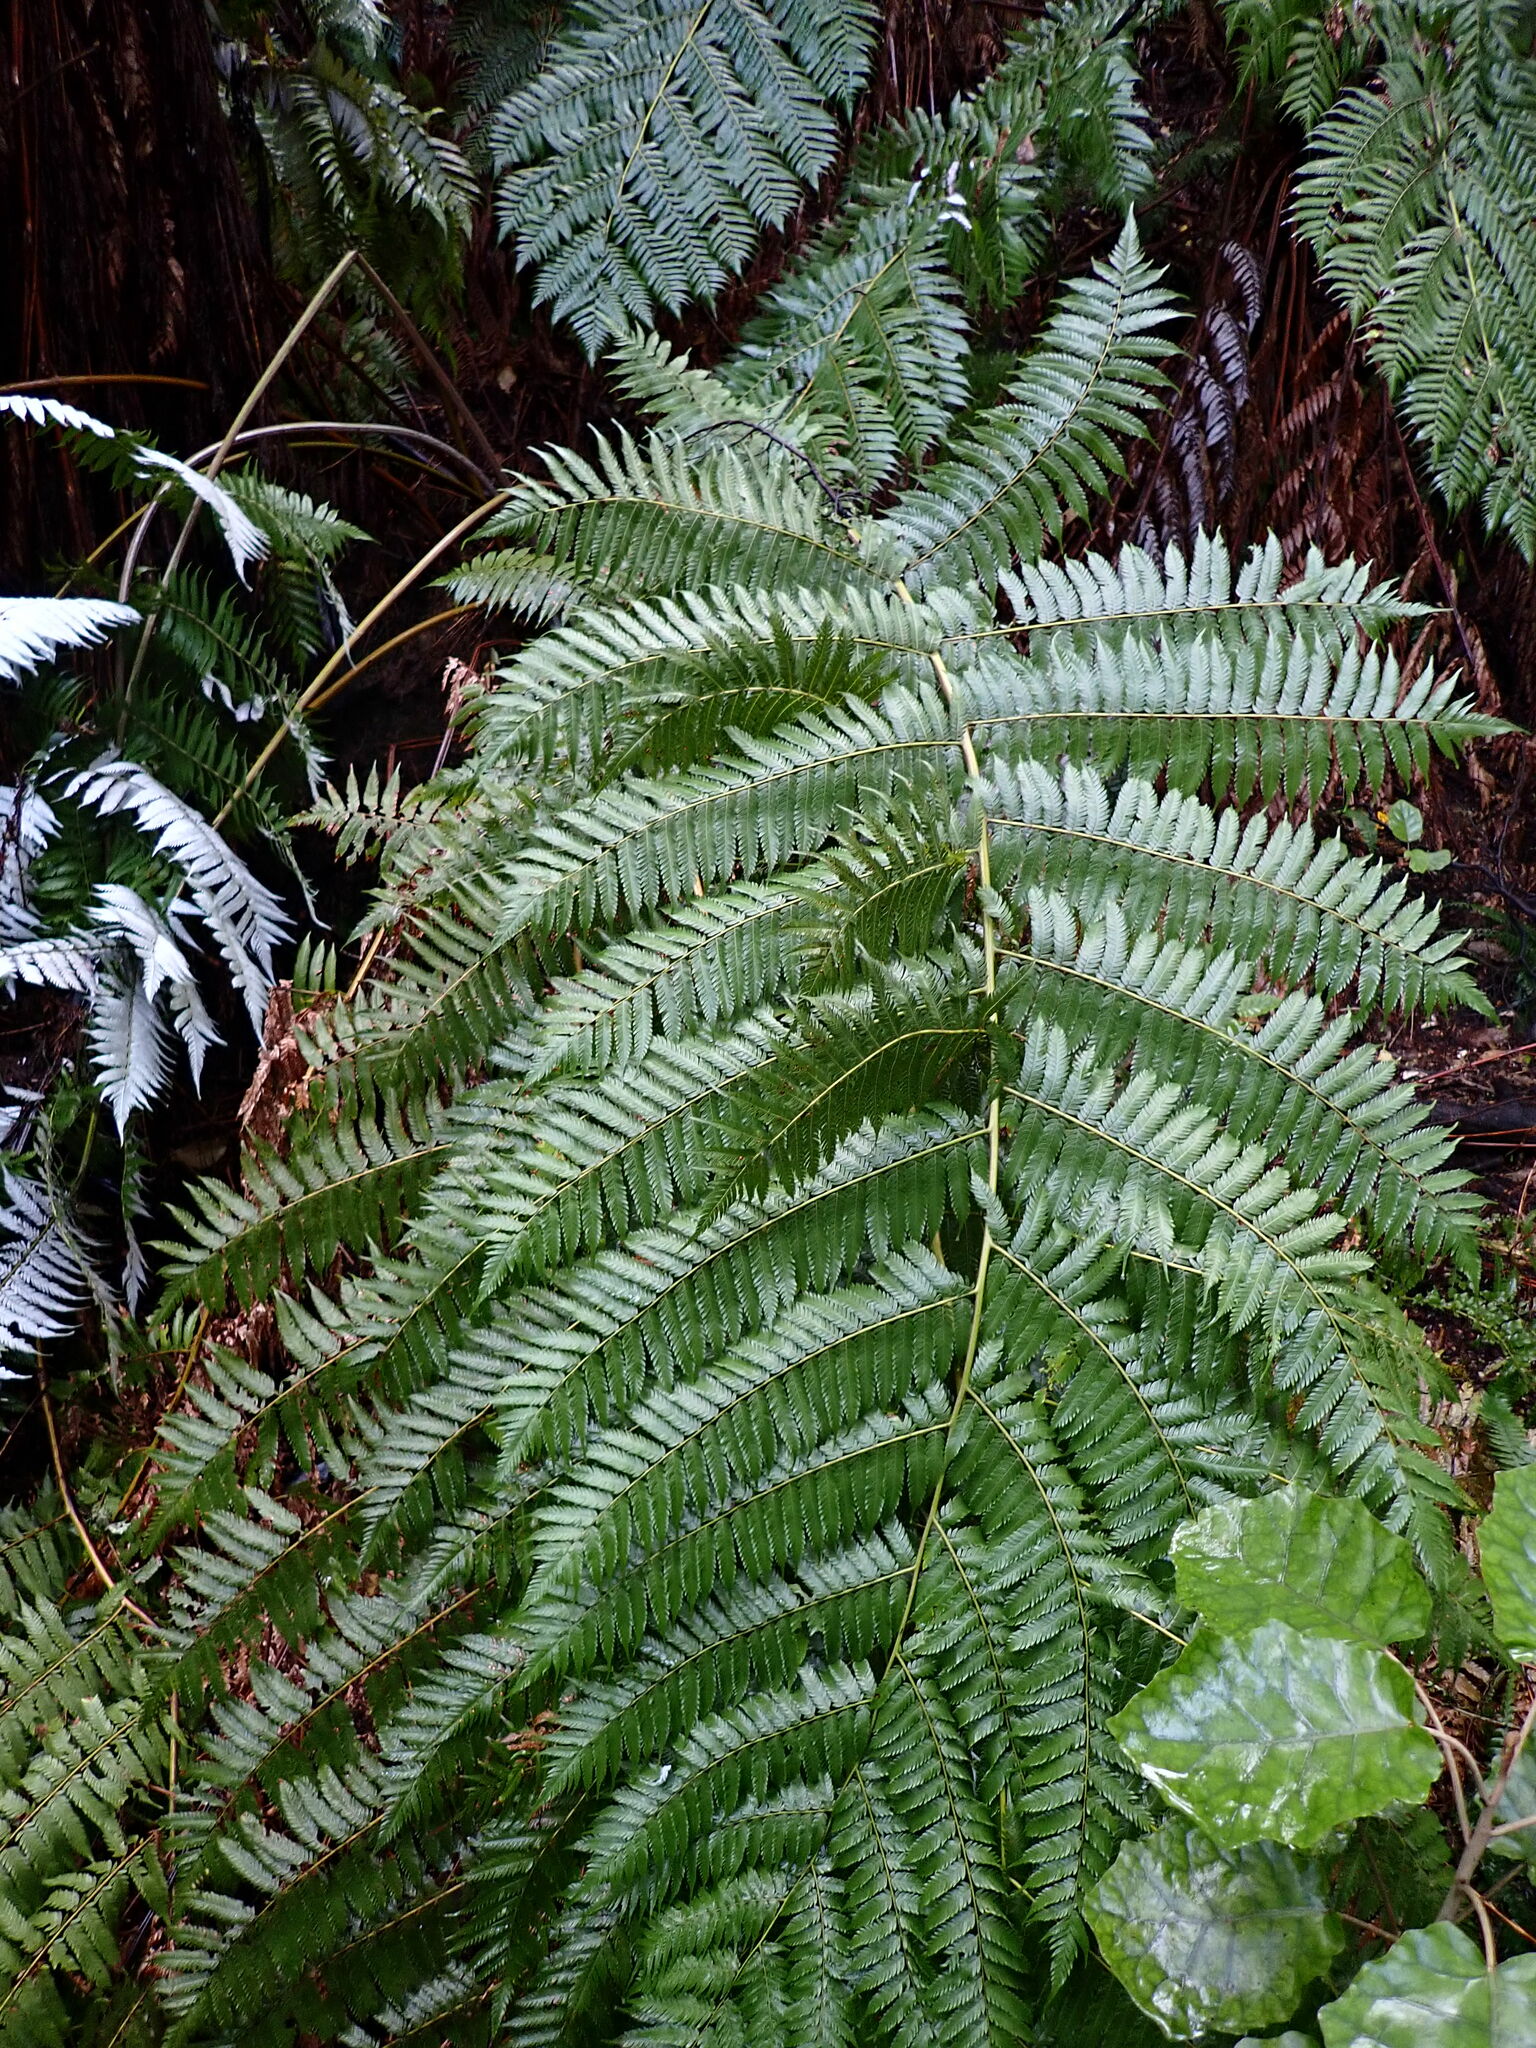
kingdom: Plantae
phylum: Tracheophyta
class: Polypodiopsida
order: Cyatheales
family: Cyatheaceae
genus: Alsophila
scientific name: Alsophila dealbata
